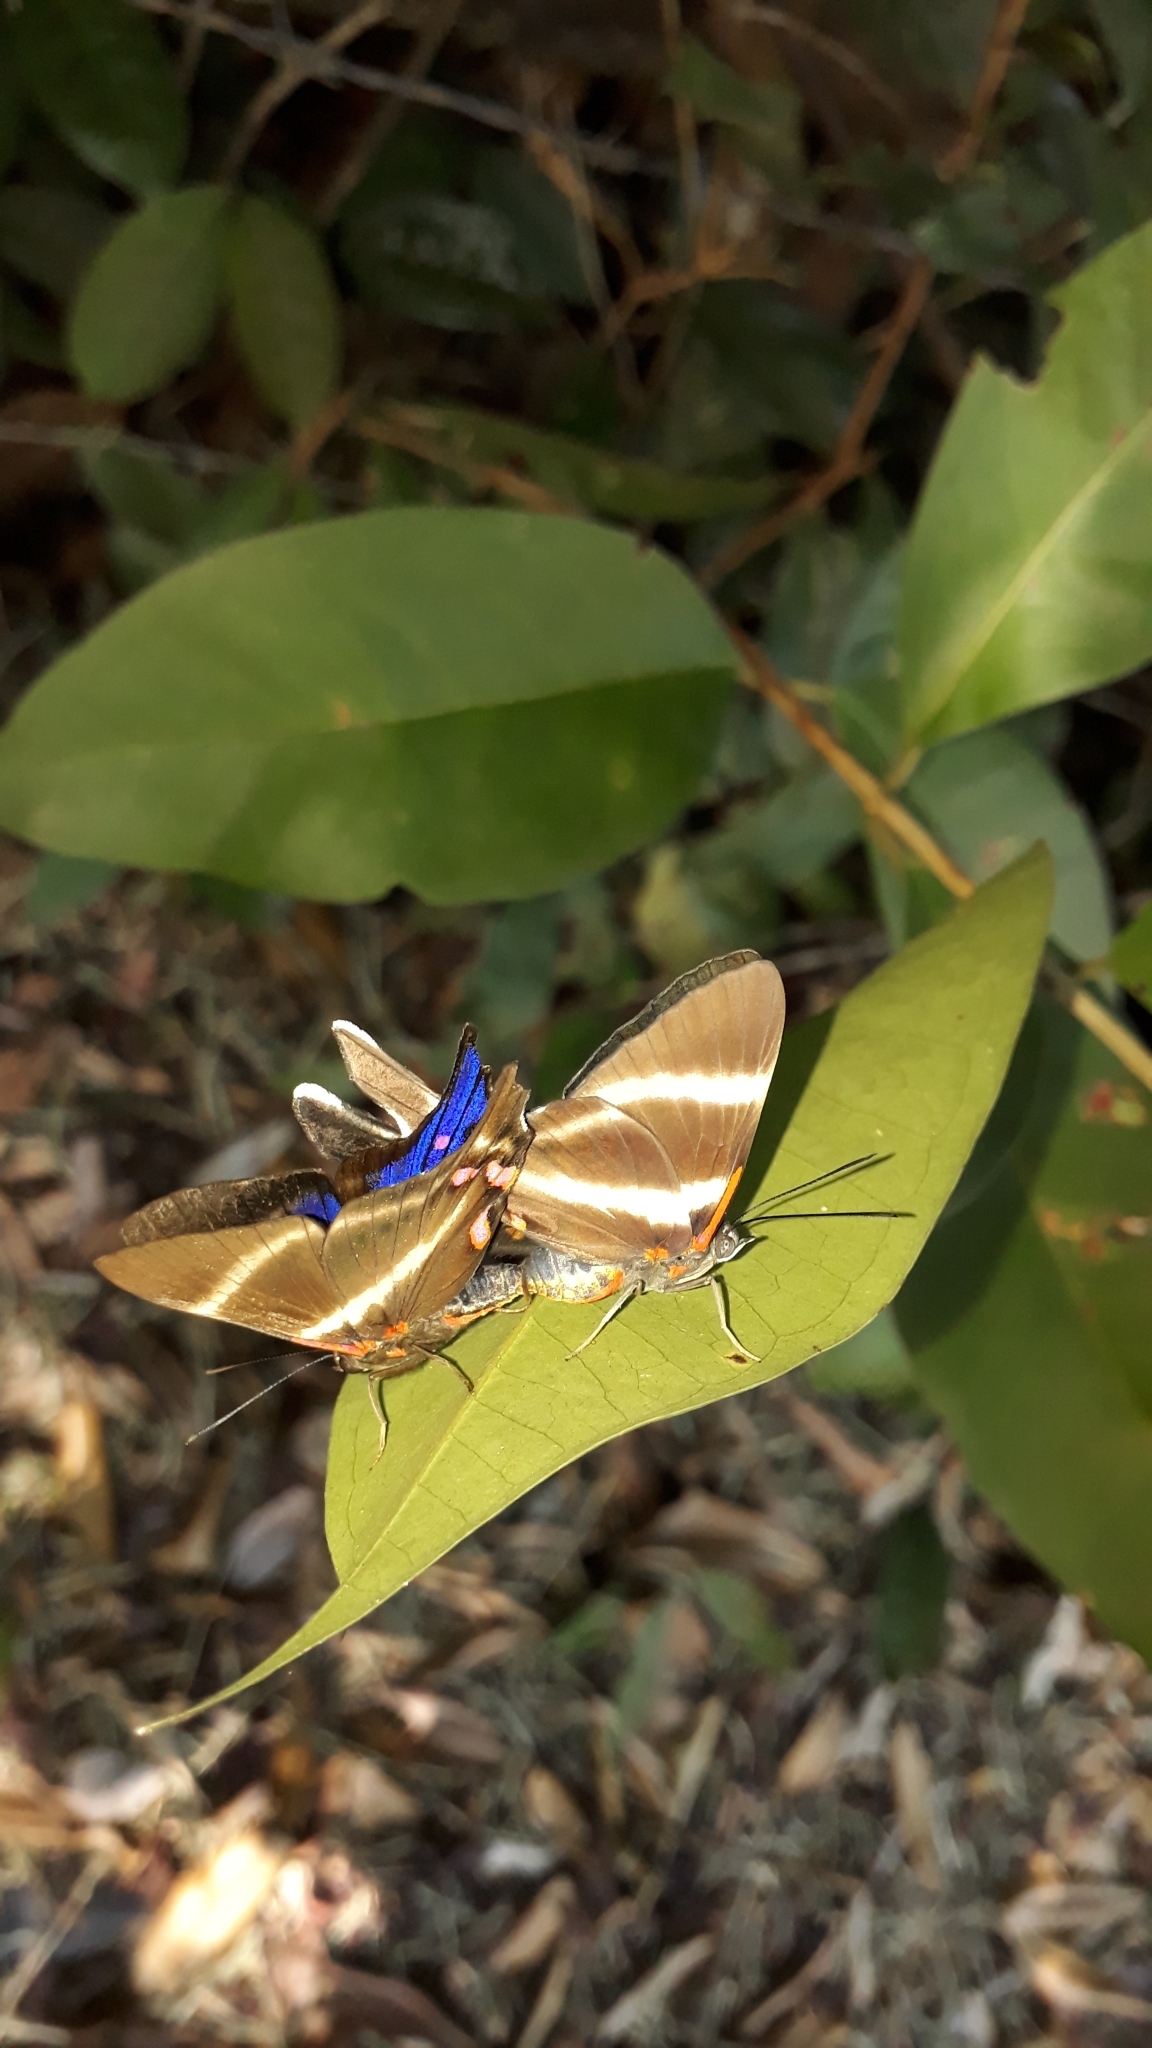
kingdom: Animalia
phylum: Arthropoda
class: Insecta
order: Lepidoptera
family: Riodinidae
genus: Rhetus
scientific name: Rhetus periander
